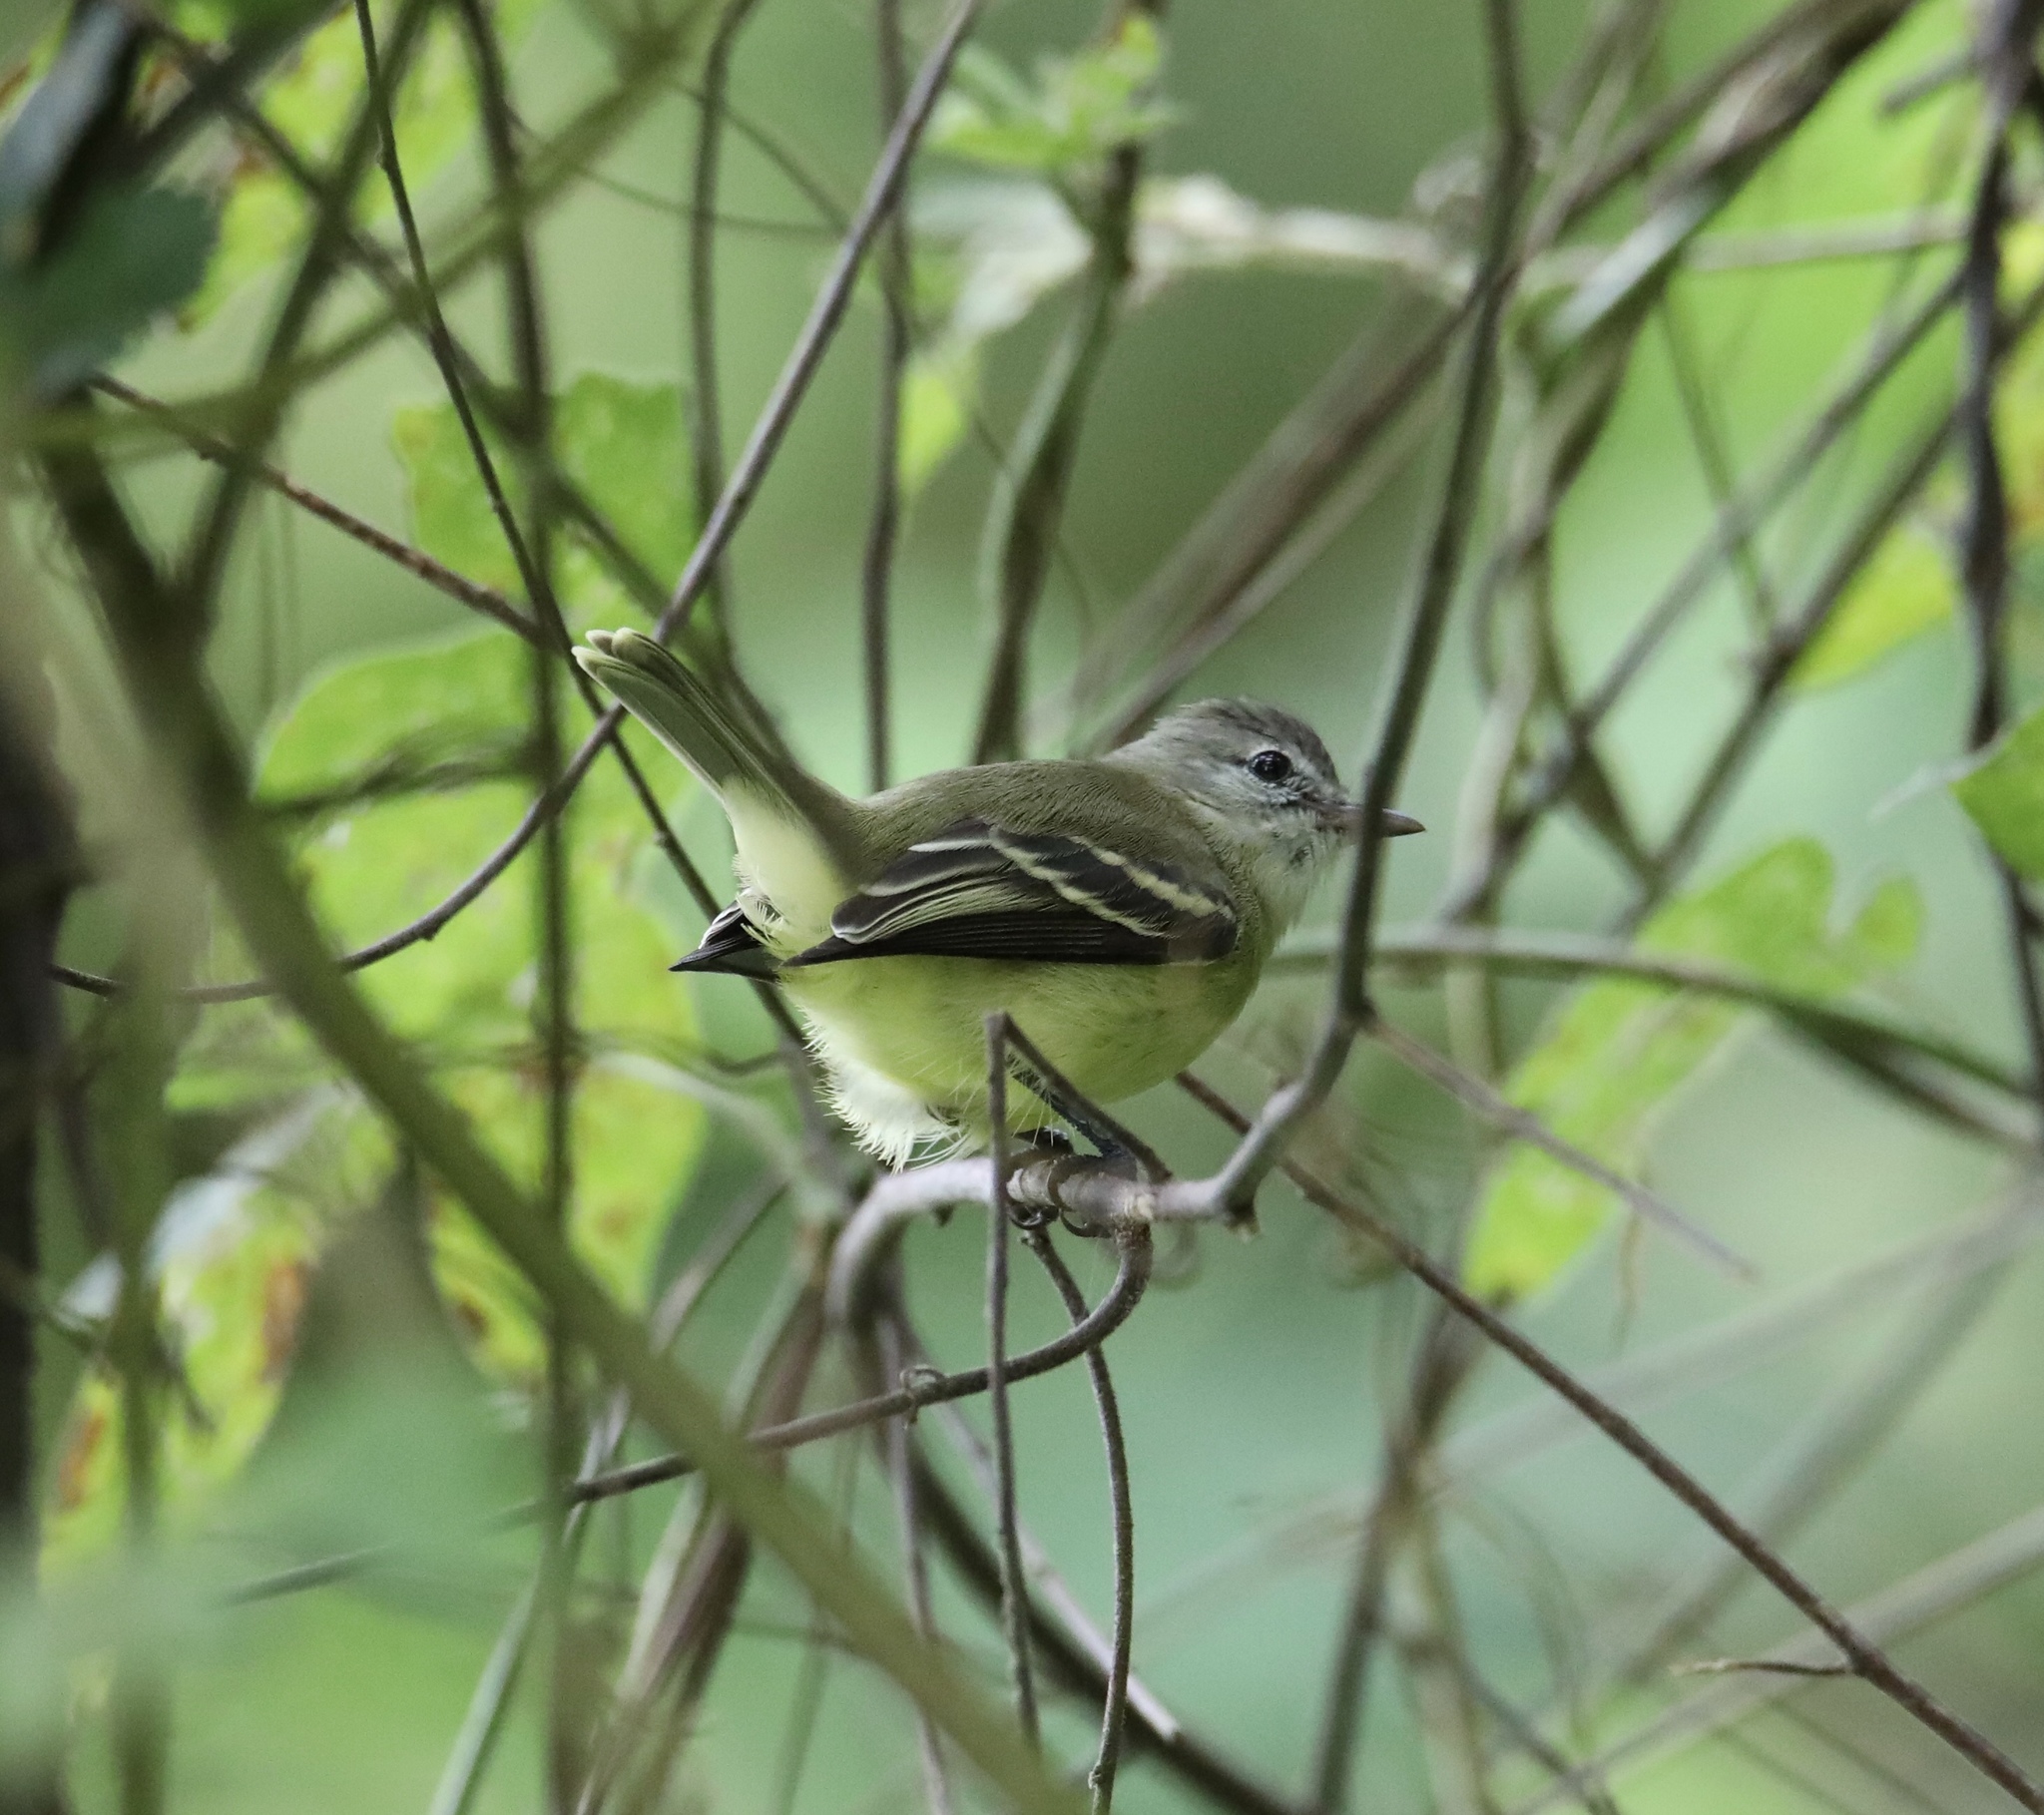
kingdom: Animalia
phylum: Chordata
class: Aves
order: Passeriformes
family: Tyrannidae
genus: Camptostoma
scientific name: Camptostoma obsoletum
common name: Southern beardless-tyrannulet
